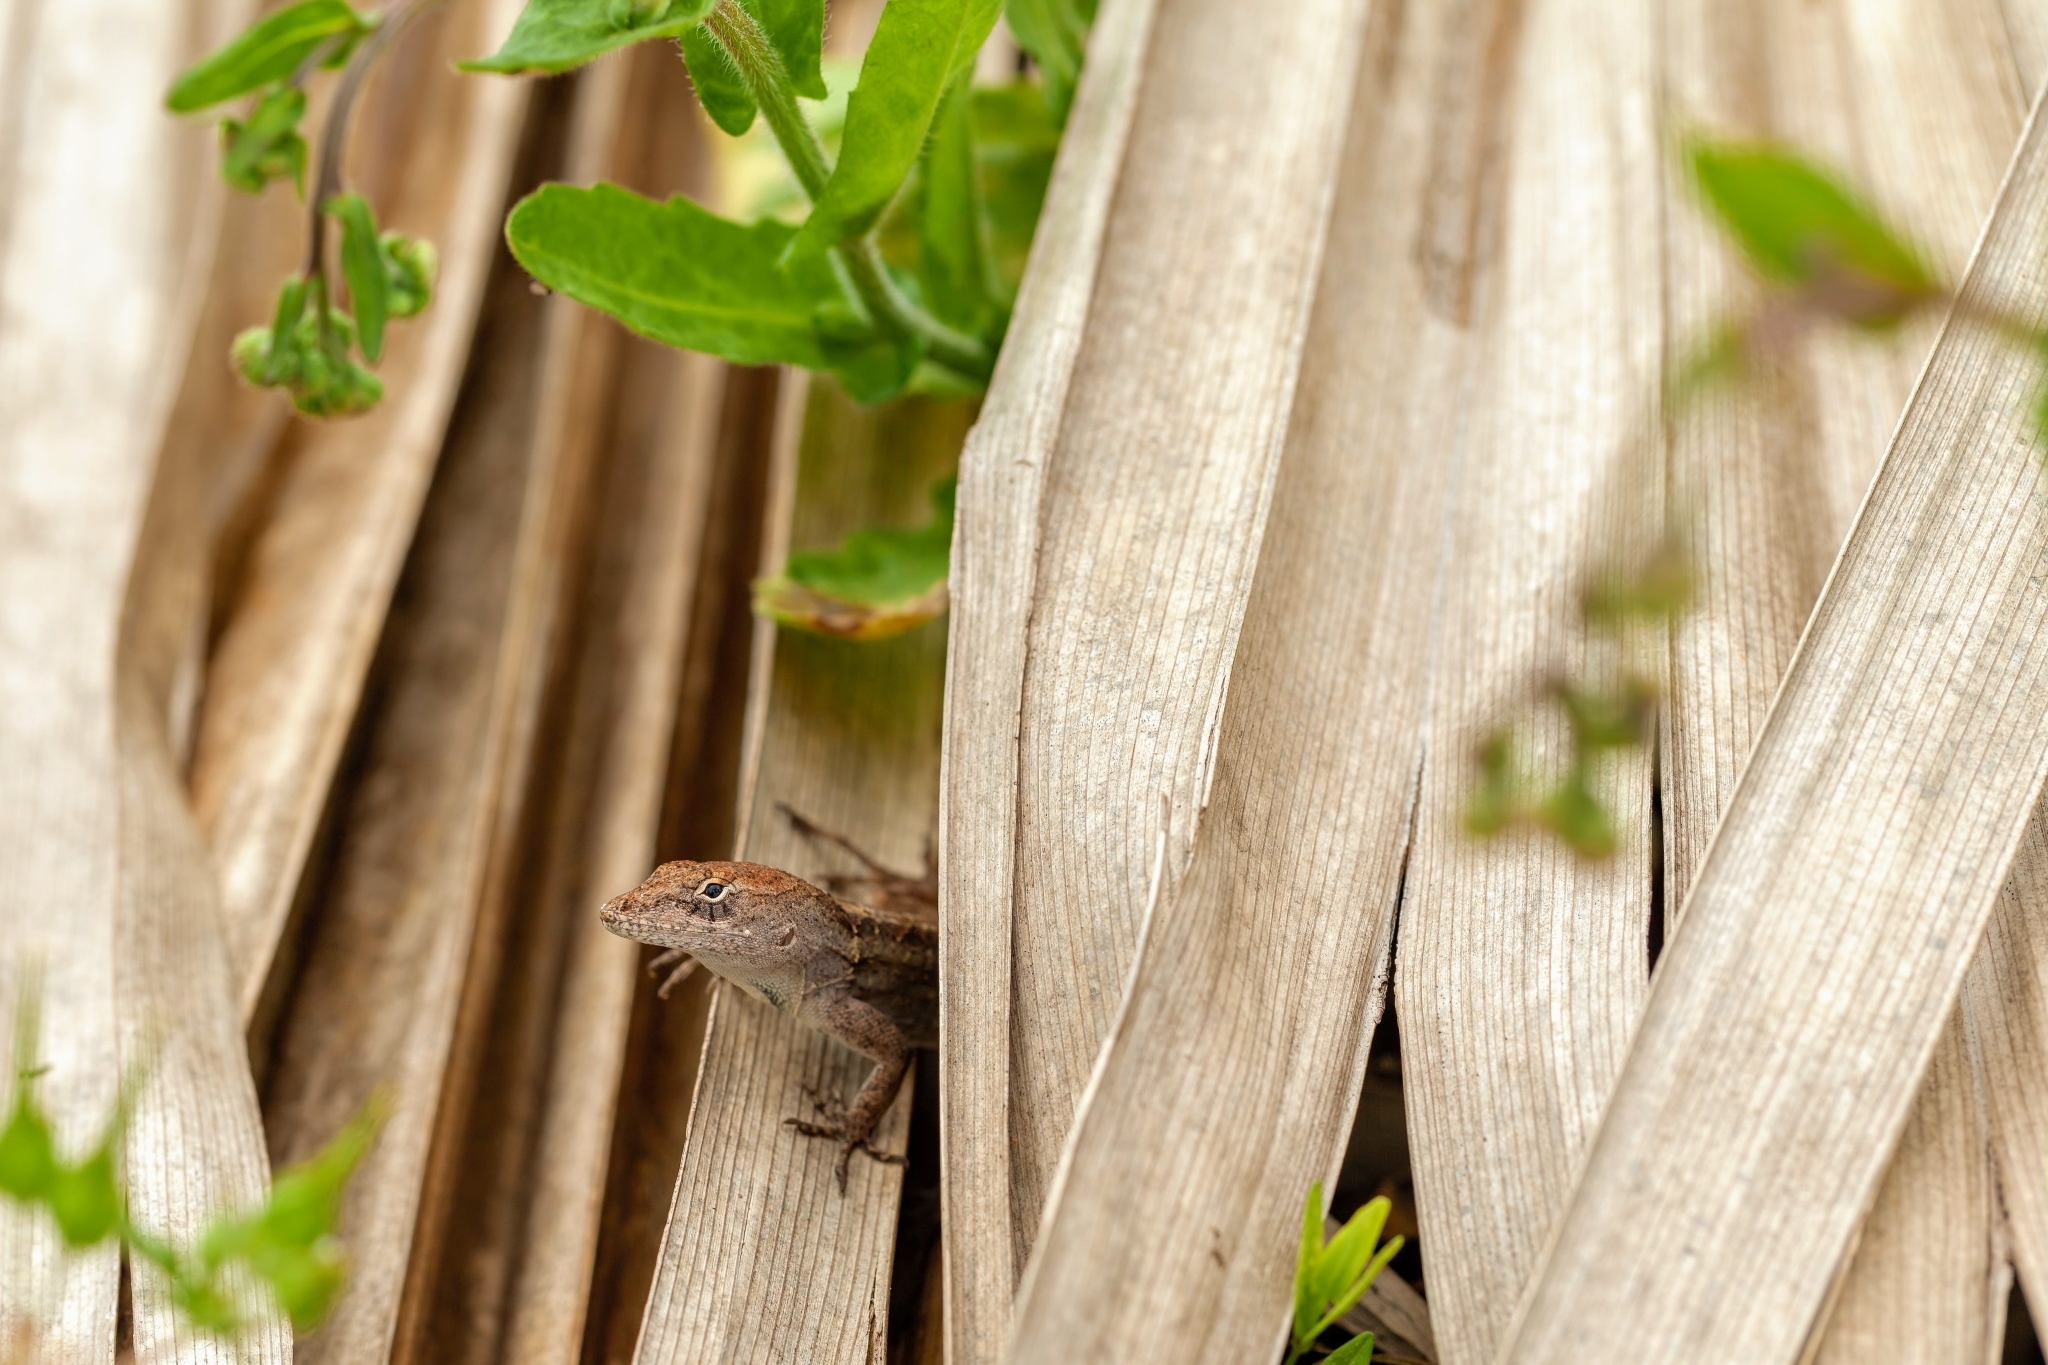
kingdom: Animalia
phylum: Chordata
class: Squamata
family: Dactyloidae
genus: Anolis
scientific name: Anolis sagrei
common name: Brown anole
